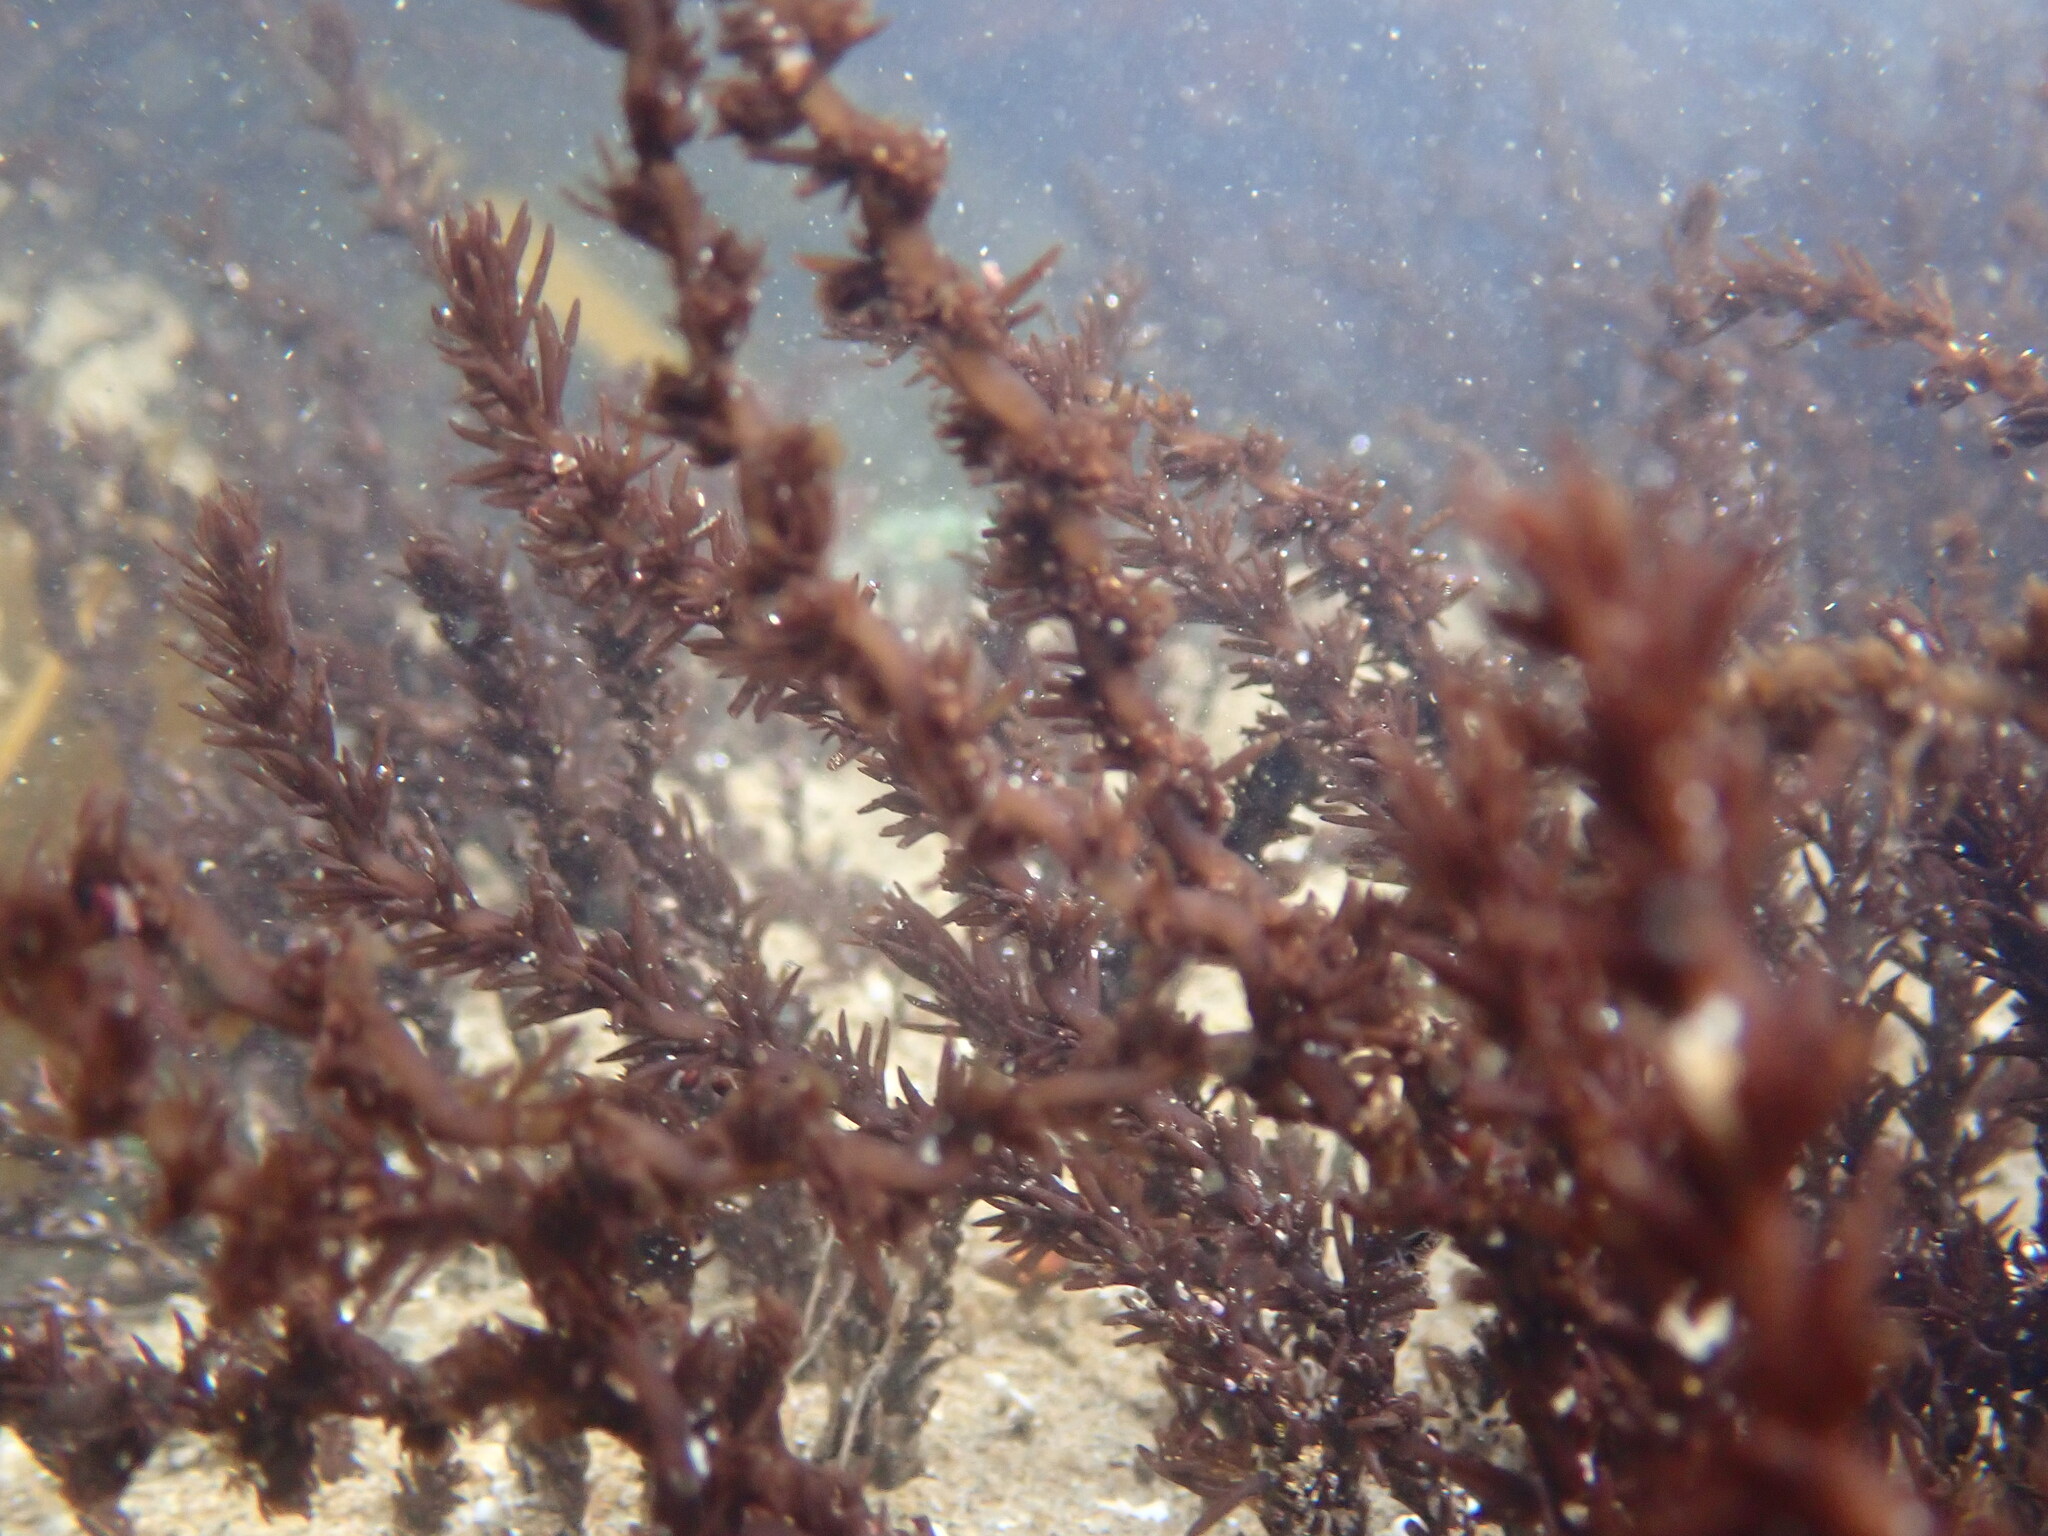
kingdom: Plantae
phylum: Rhodophyta
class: Florideophyceae
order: Ceramiales
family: Rhodomelaceae
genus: Neorhodomela
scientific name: Neorhodomela larix
